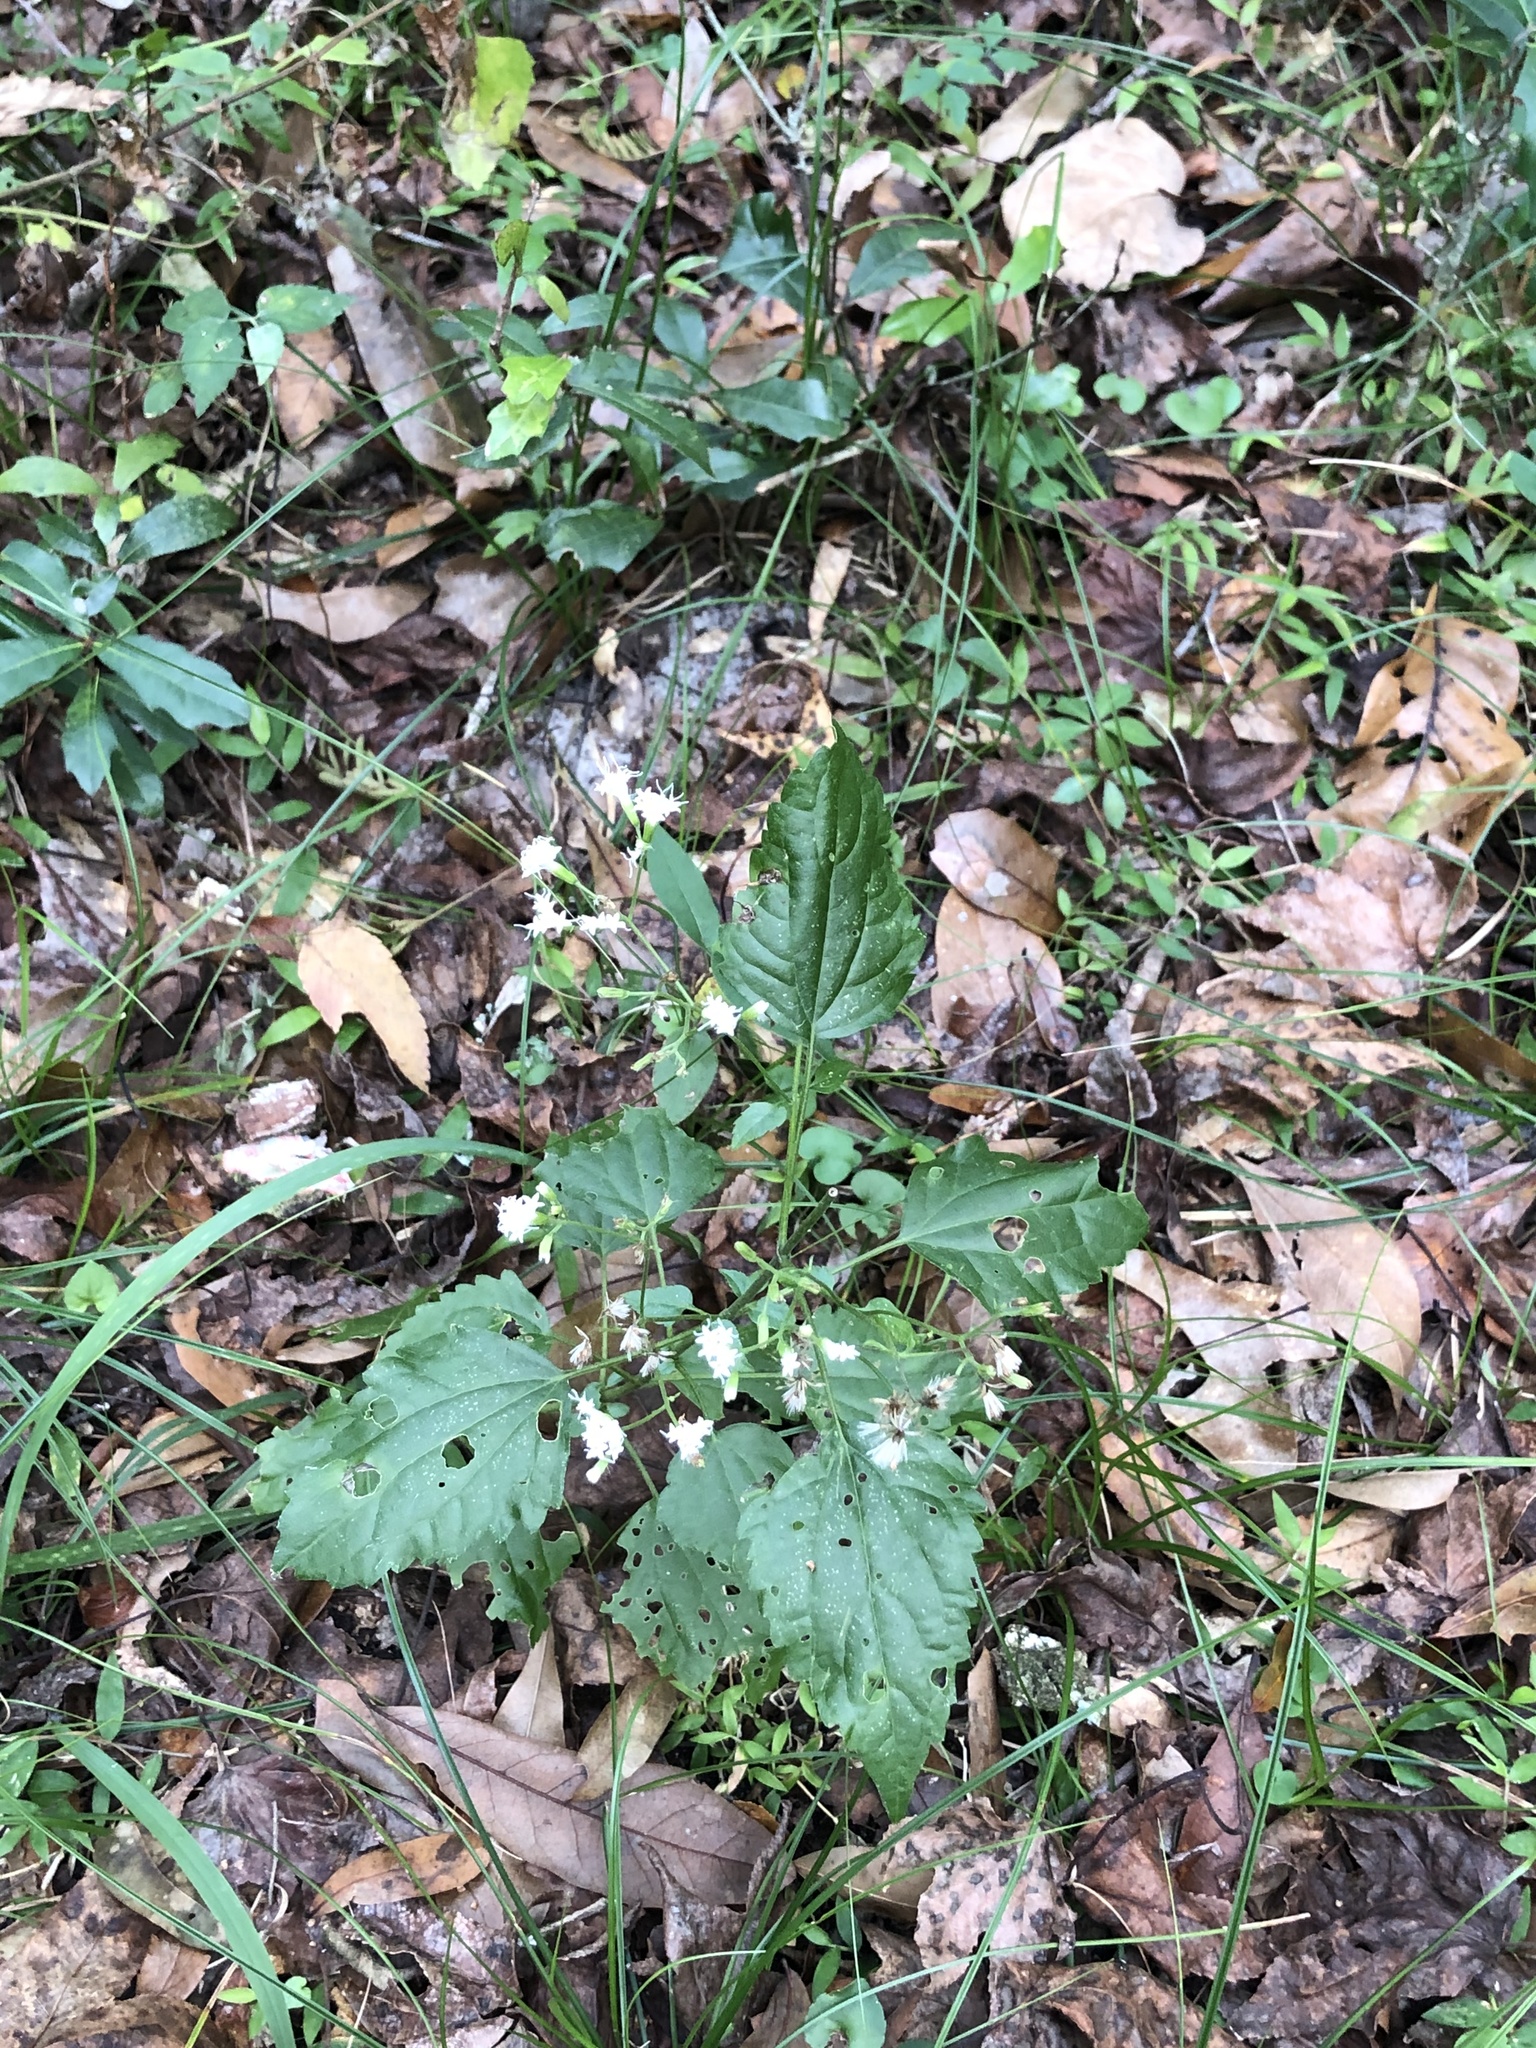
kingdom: Plantae
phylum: Tracheophyta
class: Magnoliopsida
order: Asterales
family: Asteraceae
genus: Ageratina
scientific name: Ageratina jucunda
